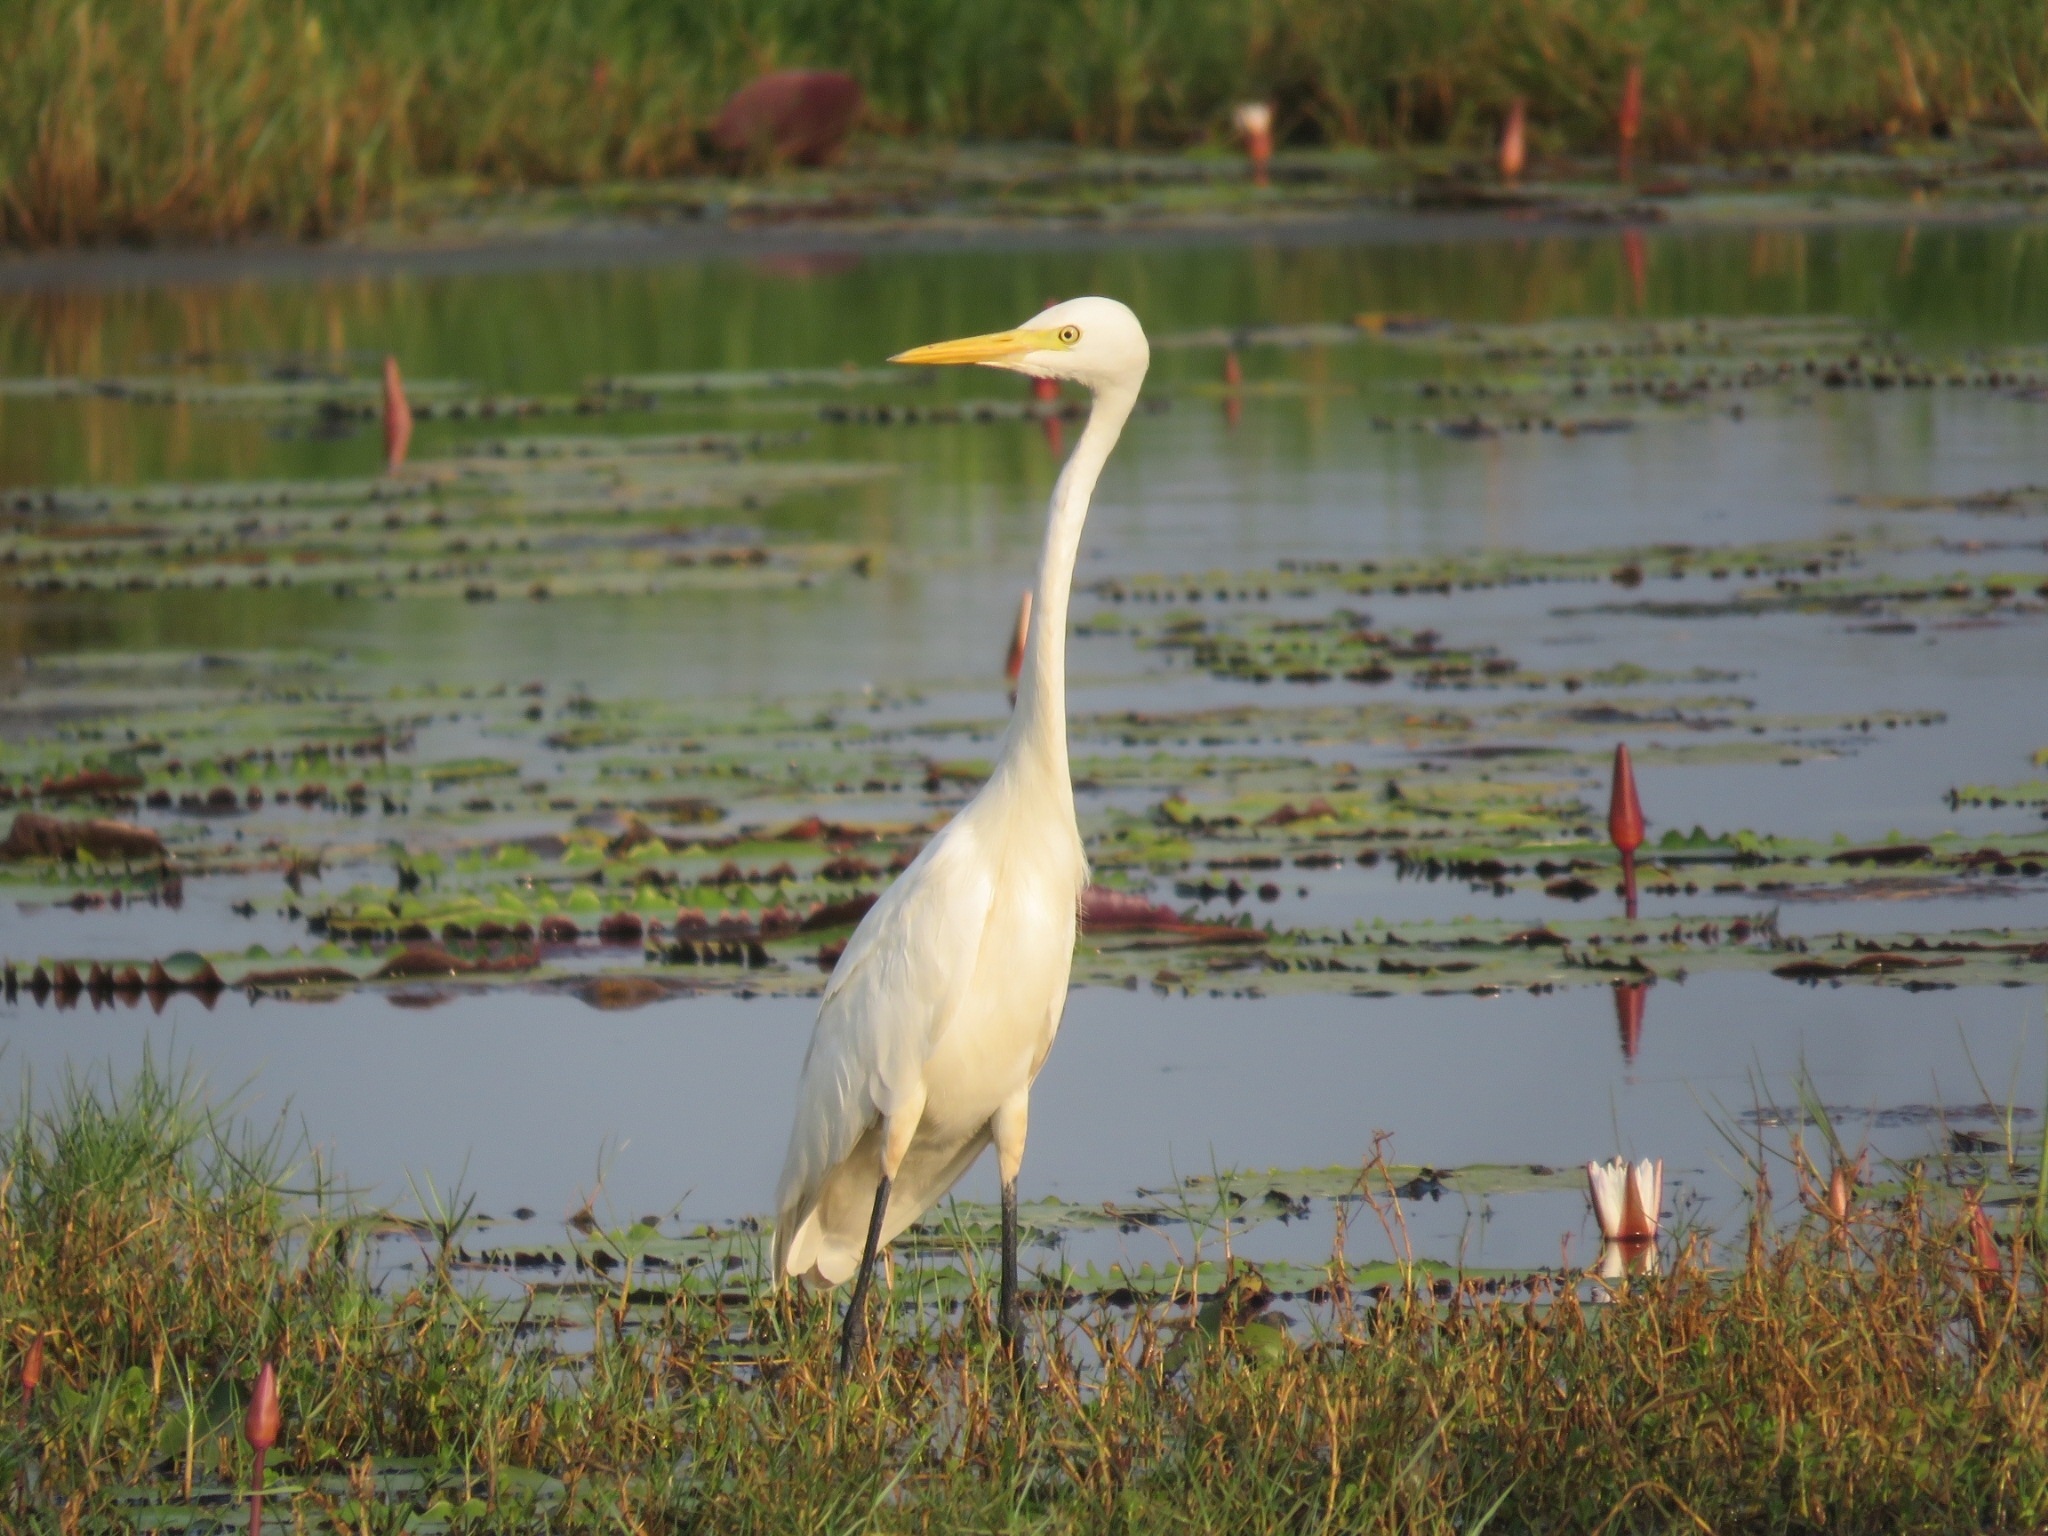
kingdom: Animalia
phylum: Chordata
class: Aves
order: Pelecaniformes
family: Ardeidae
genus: Egretta
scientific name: Egretta intermedia
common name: Intermediate egret
